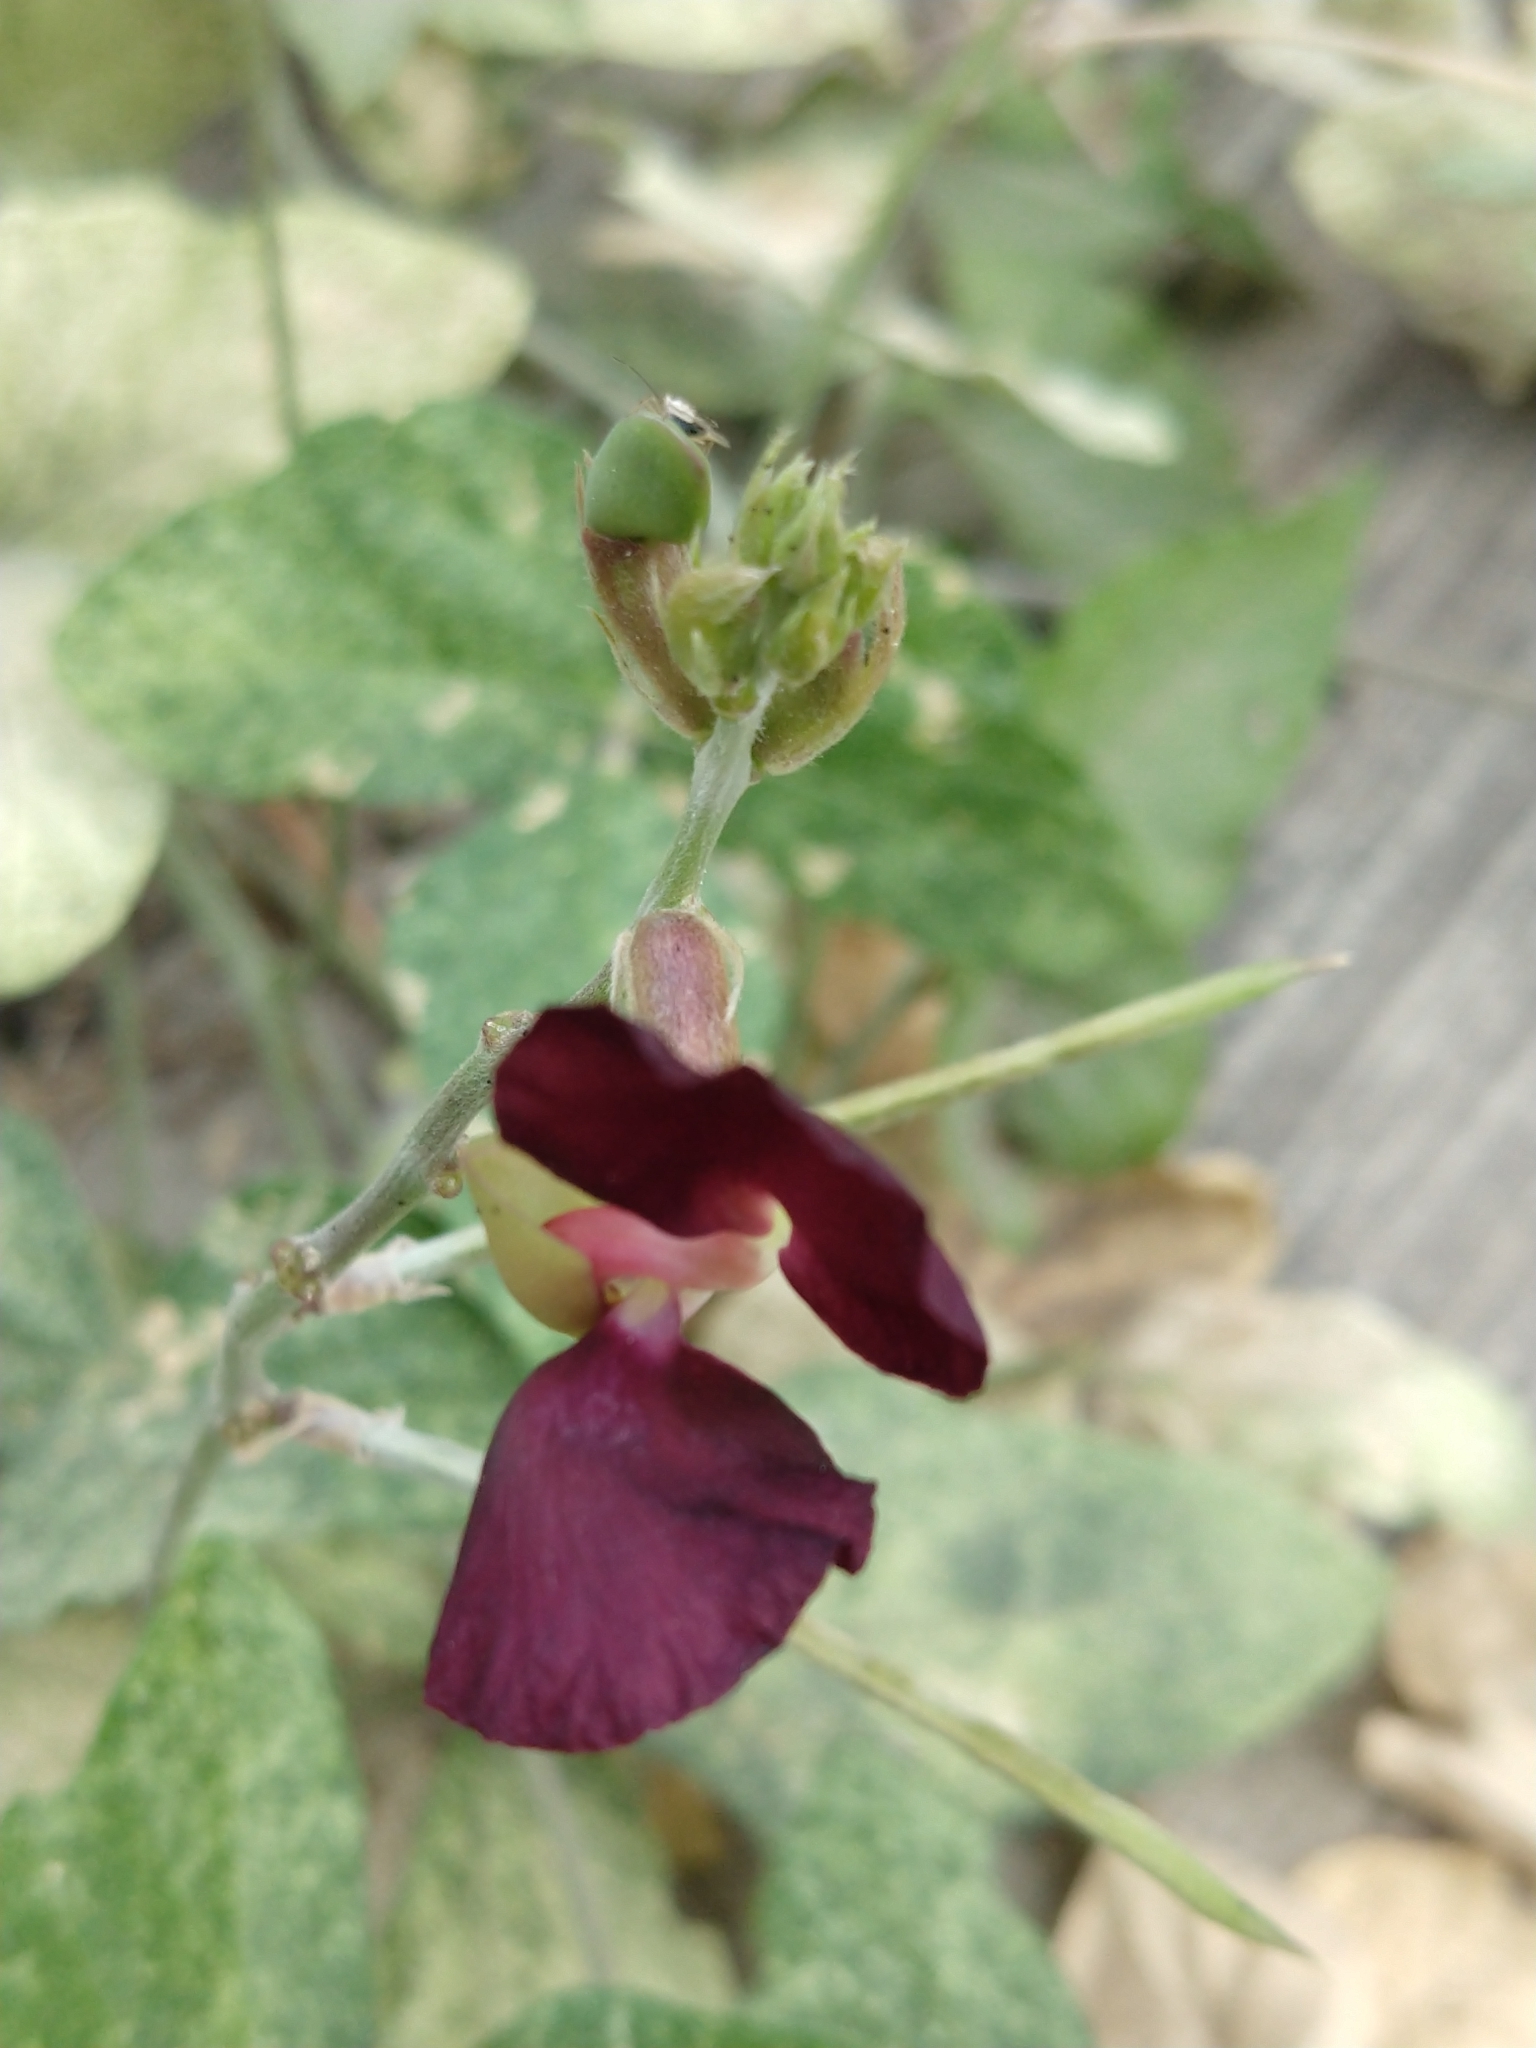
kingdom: Plantae
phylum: Tracheophyta
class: Magnoliopsida
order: Fabales
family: Fabaceae
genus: Macroptilium
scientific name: Macroptilium atropurpureum
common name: Purple bushbean
